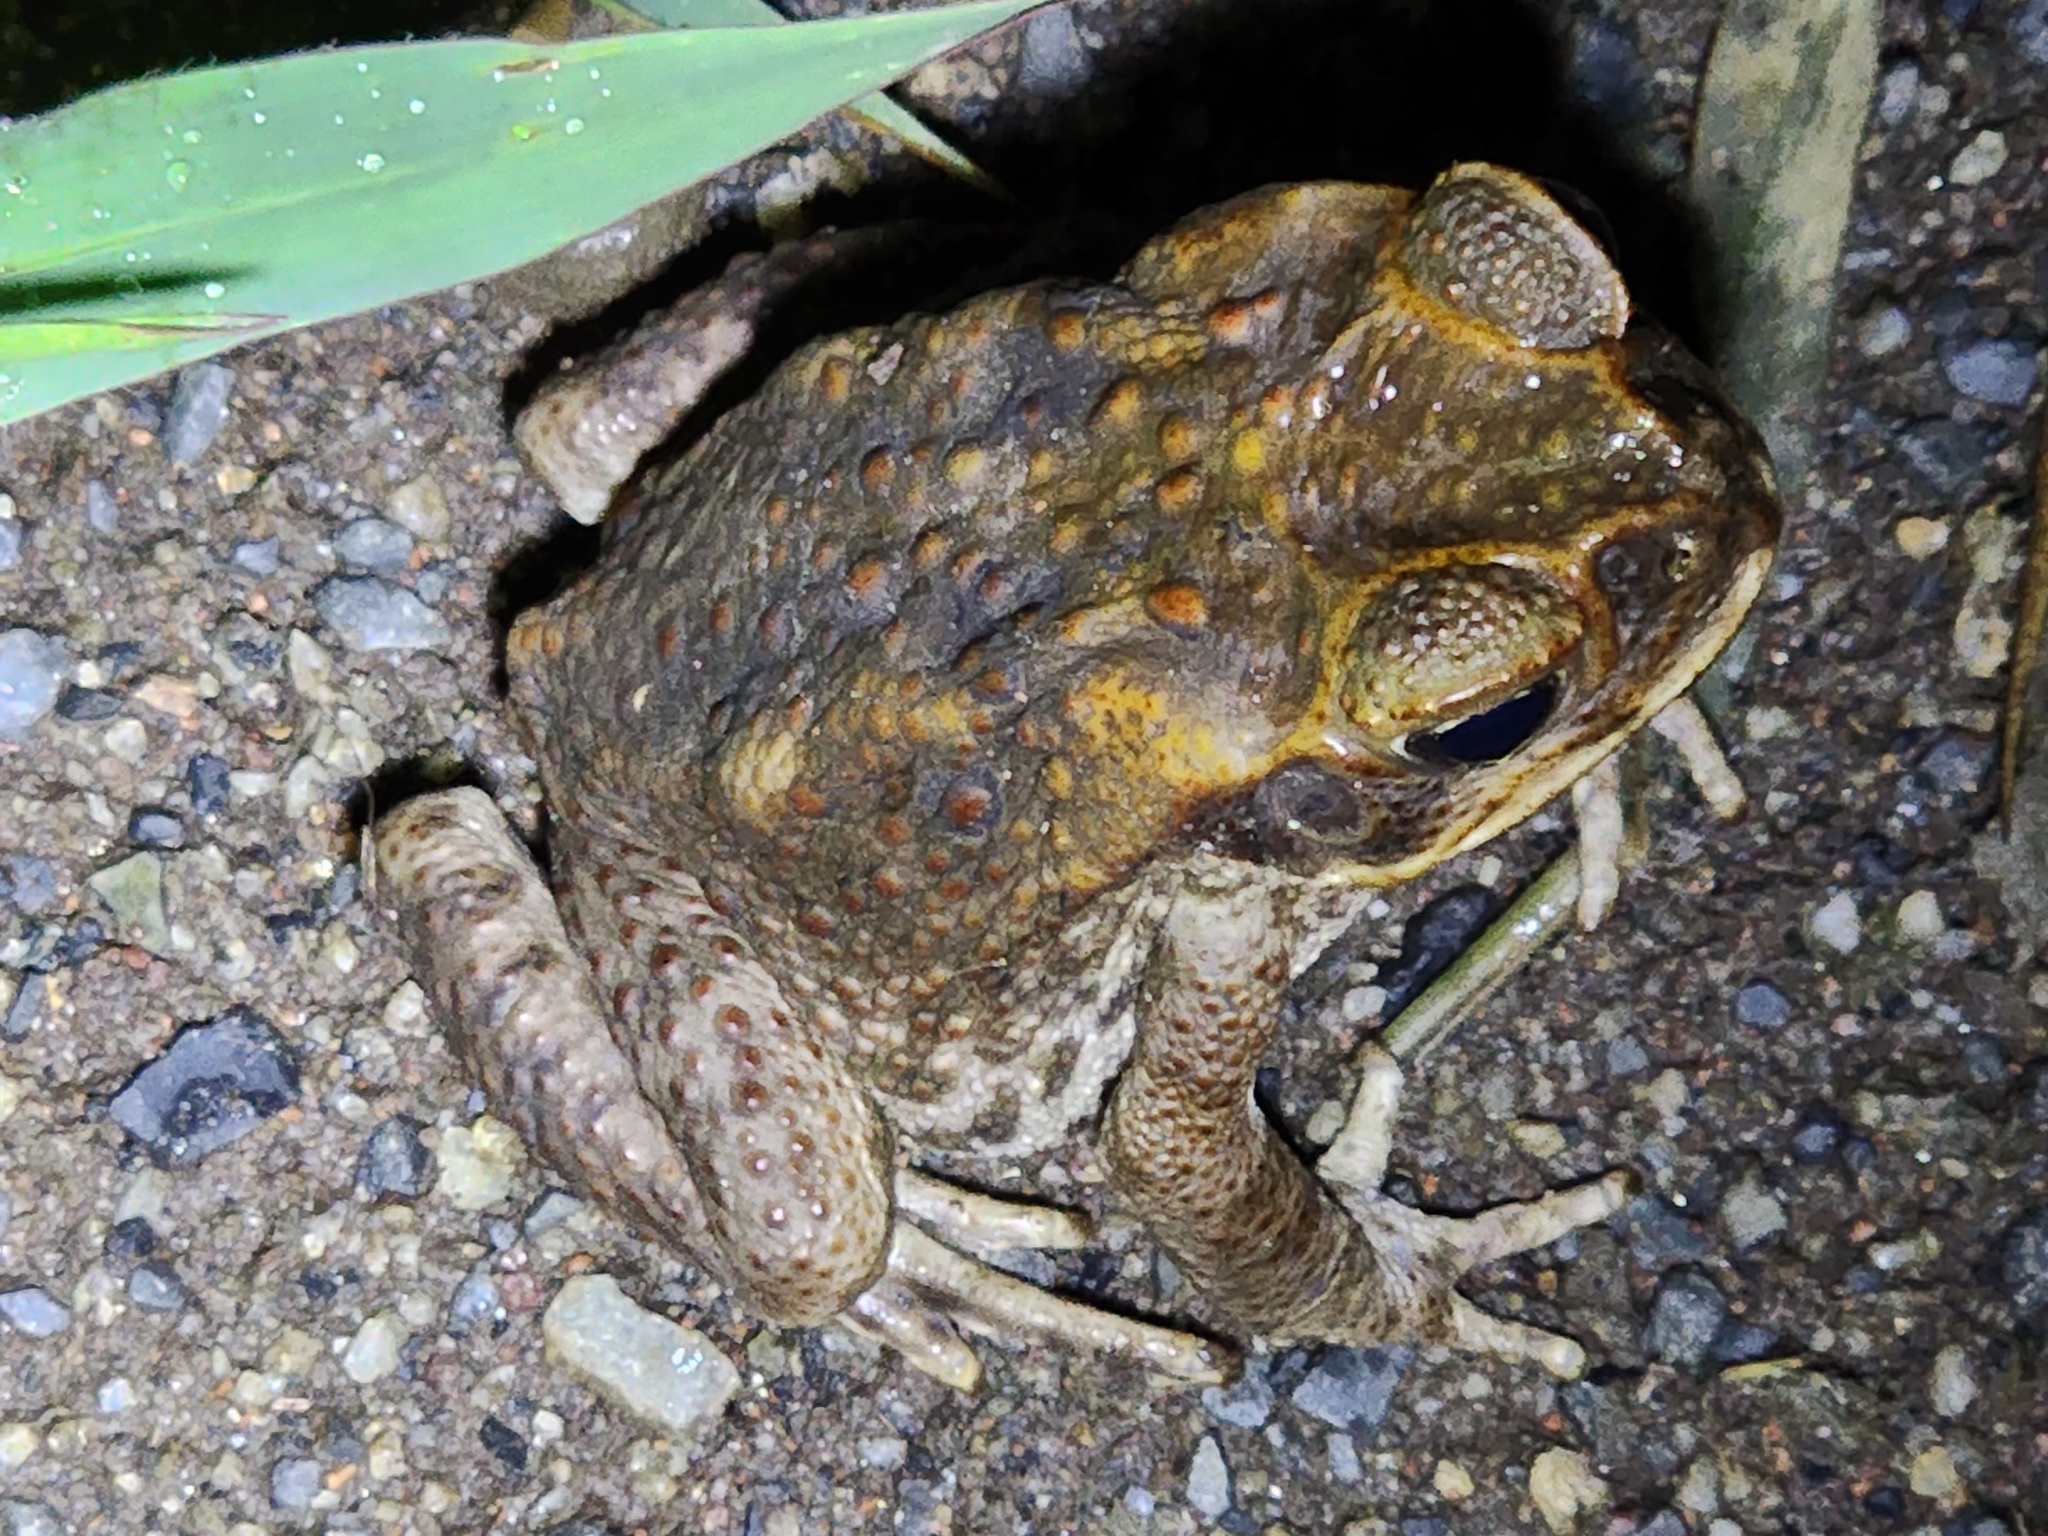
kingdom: Animalia
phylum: Chordata
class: Amphibia
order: Anura
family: Bufonidae
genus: Rhinella
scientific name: Rhinella marina
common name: Cane toad
